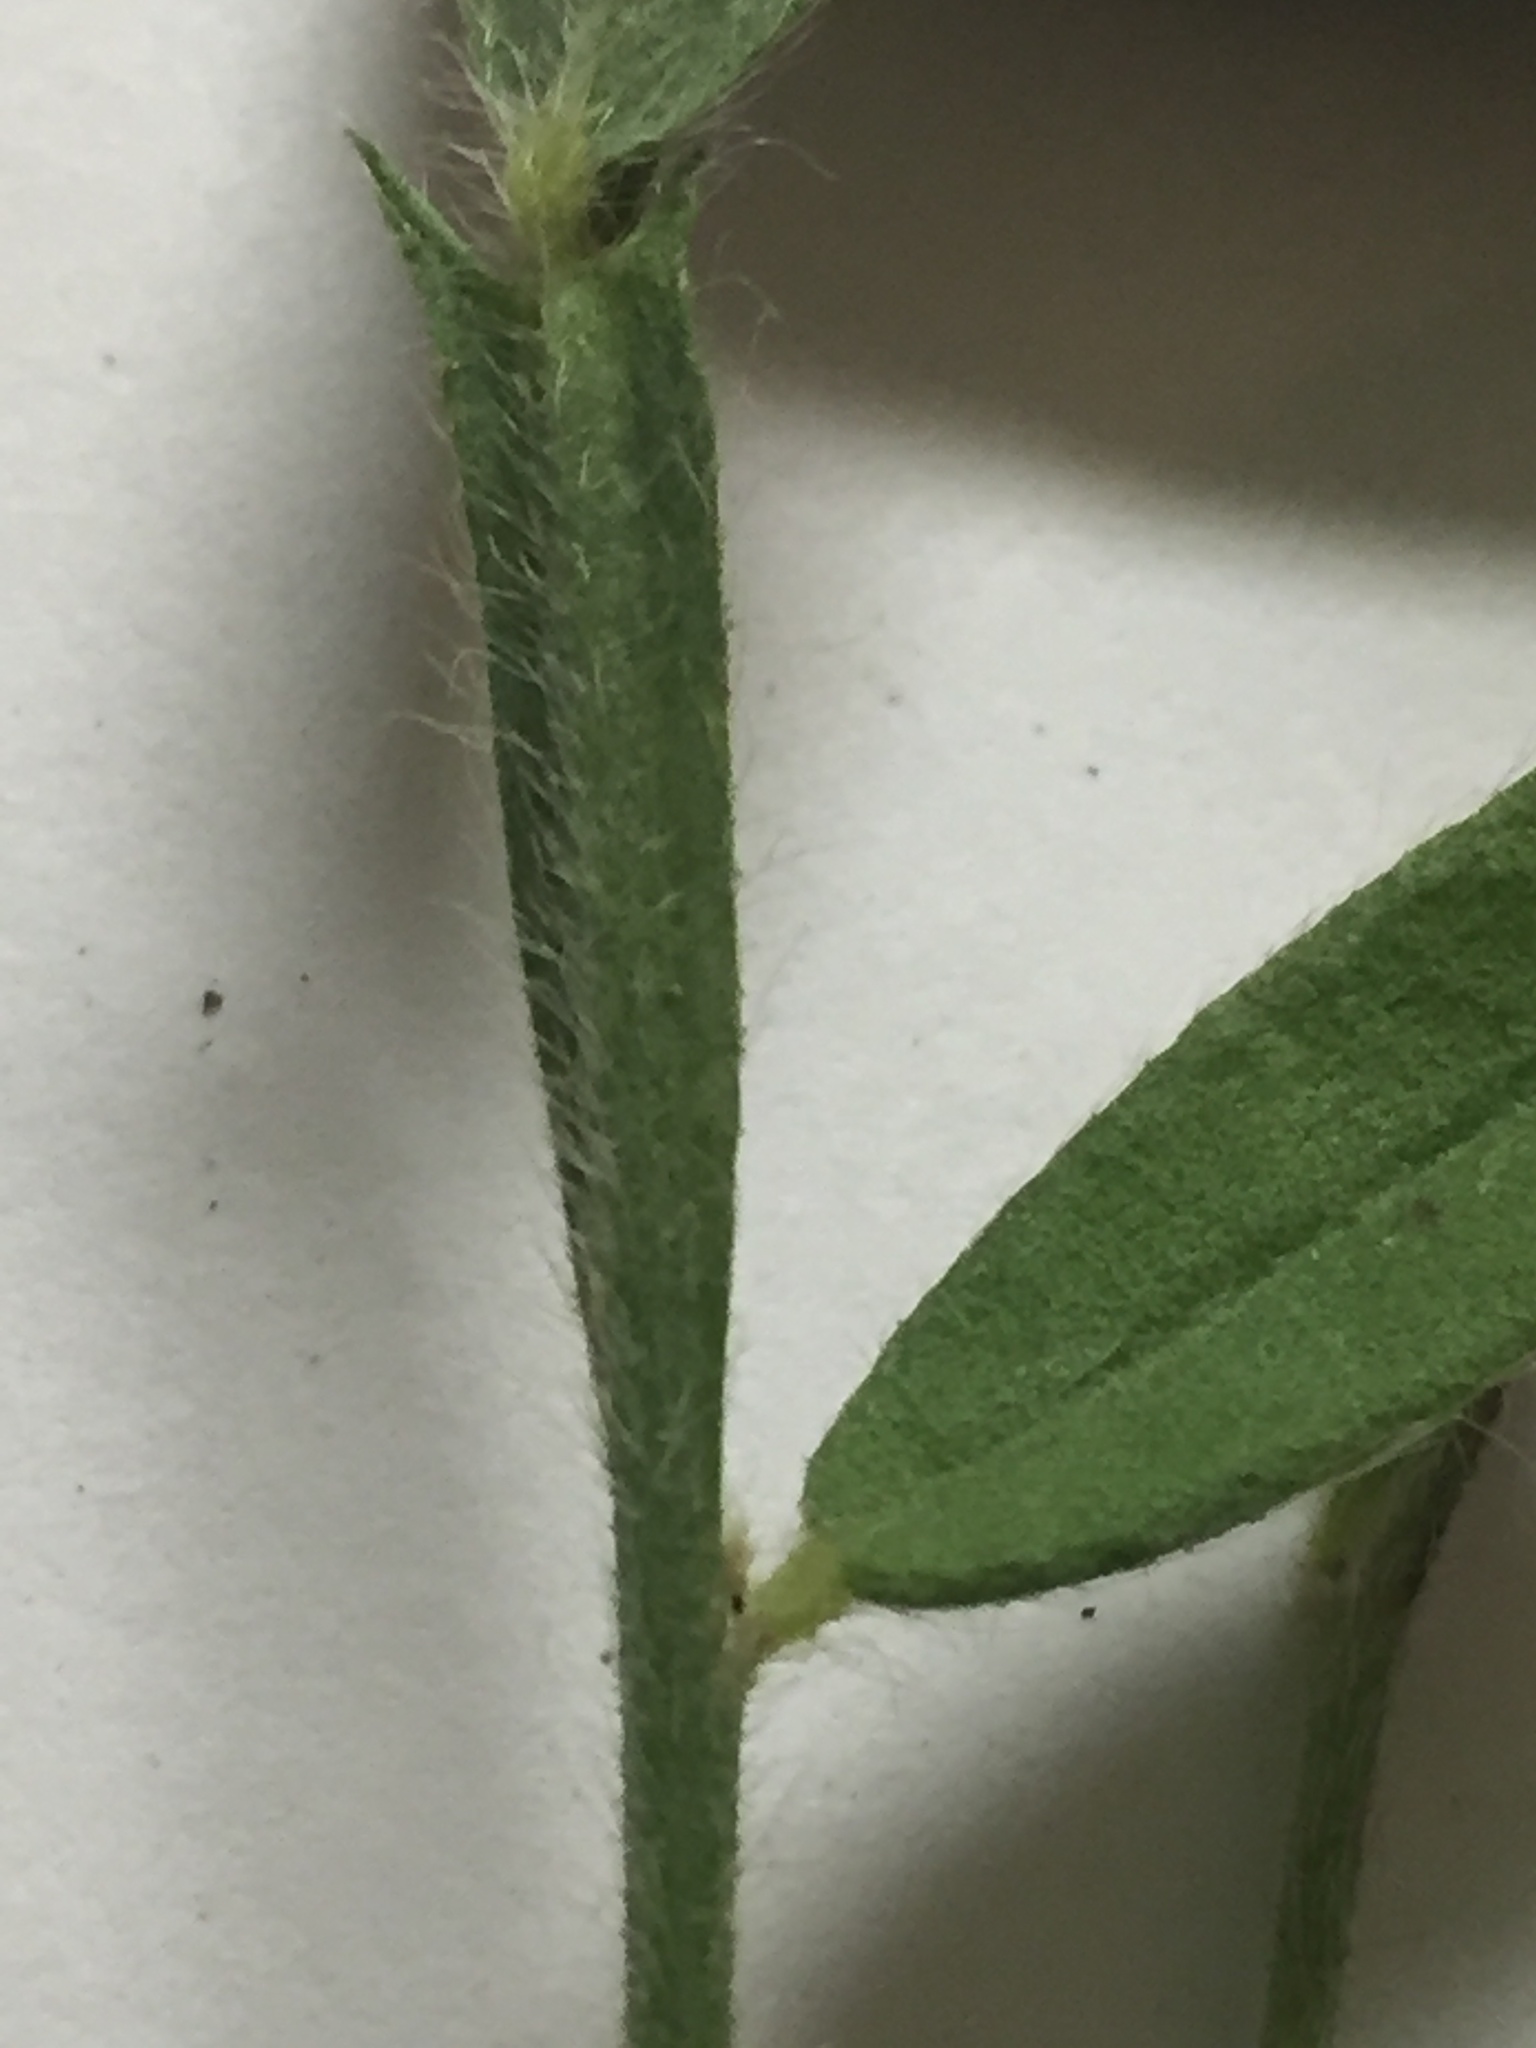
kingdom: Plantae
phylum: Tracheophyta
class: Magnoliopsida
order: Fabales
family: Fabaceae
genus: Crotalaria
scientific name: Crotalaria sagittalis
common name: Arrowhead rattlebox
